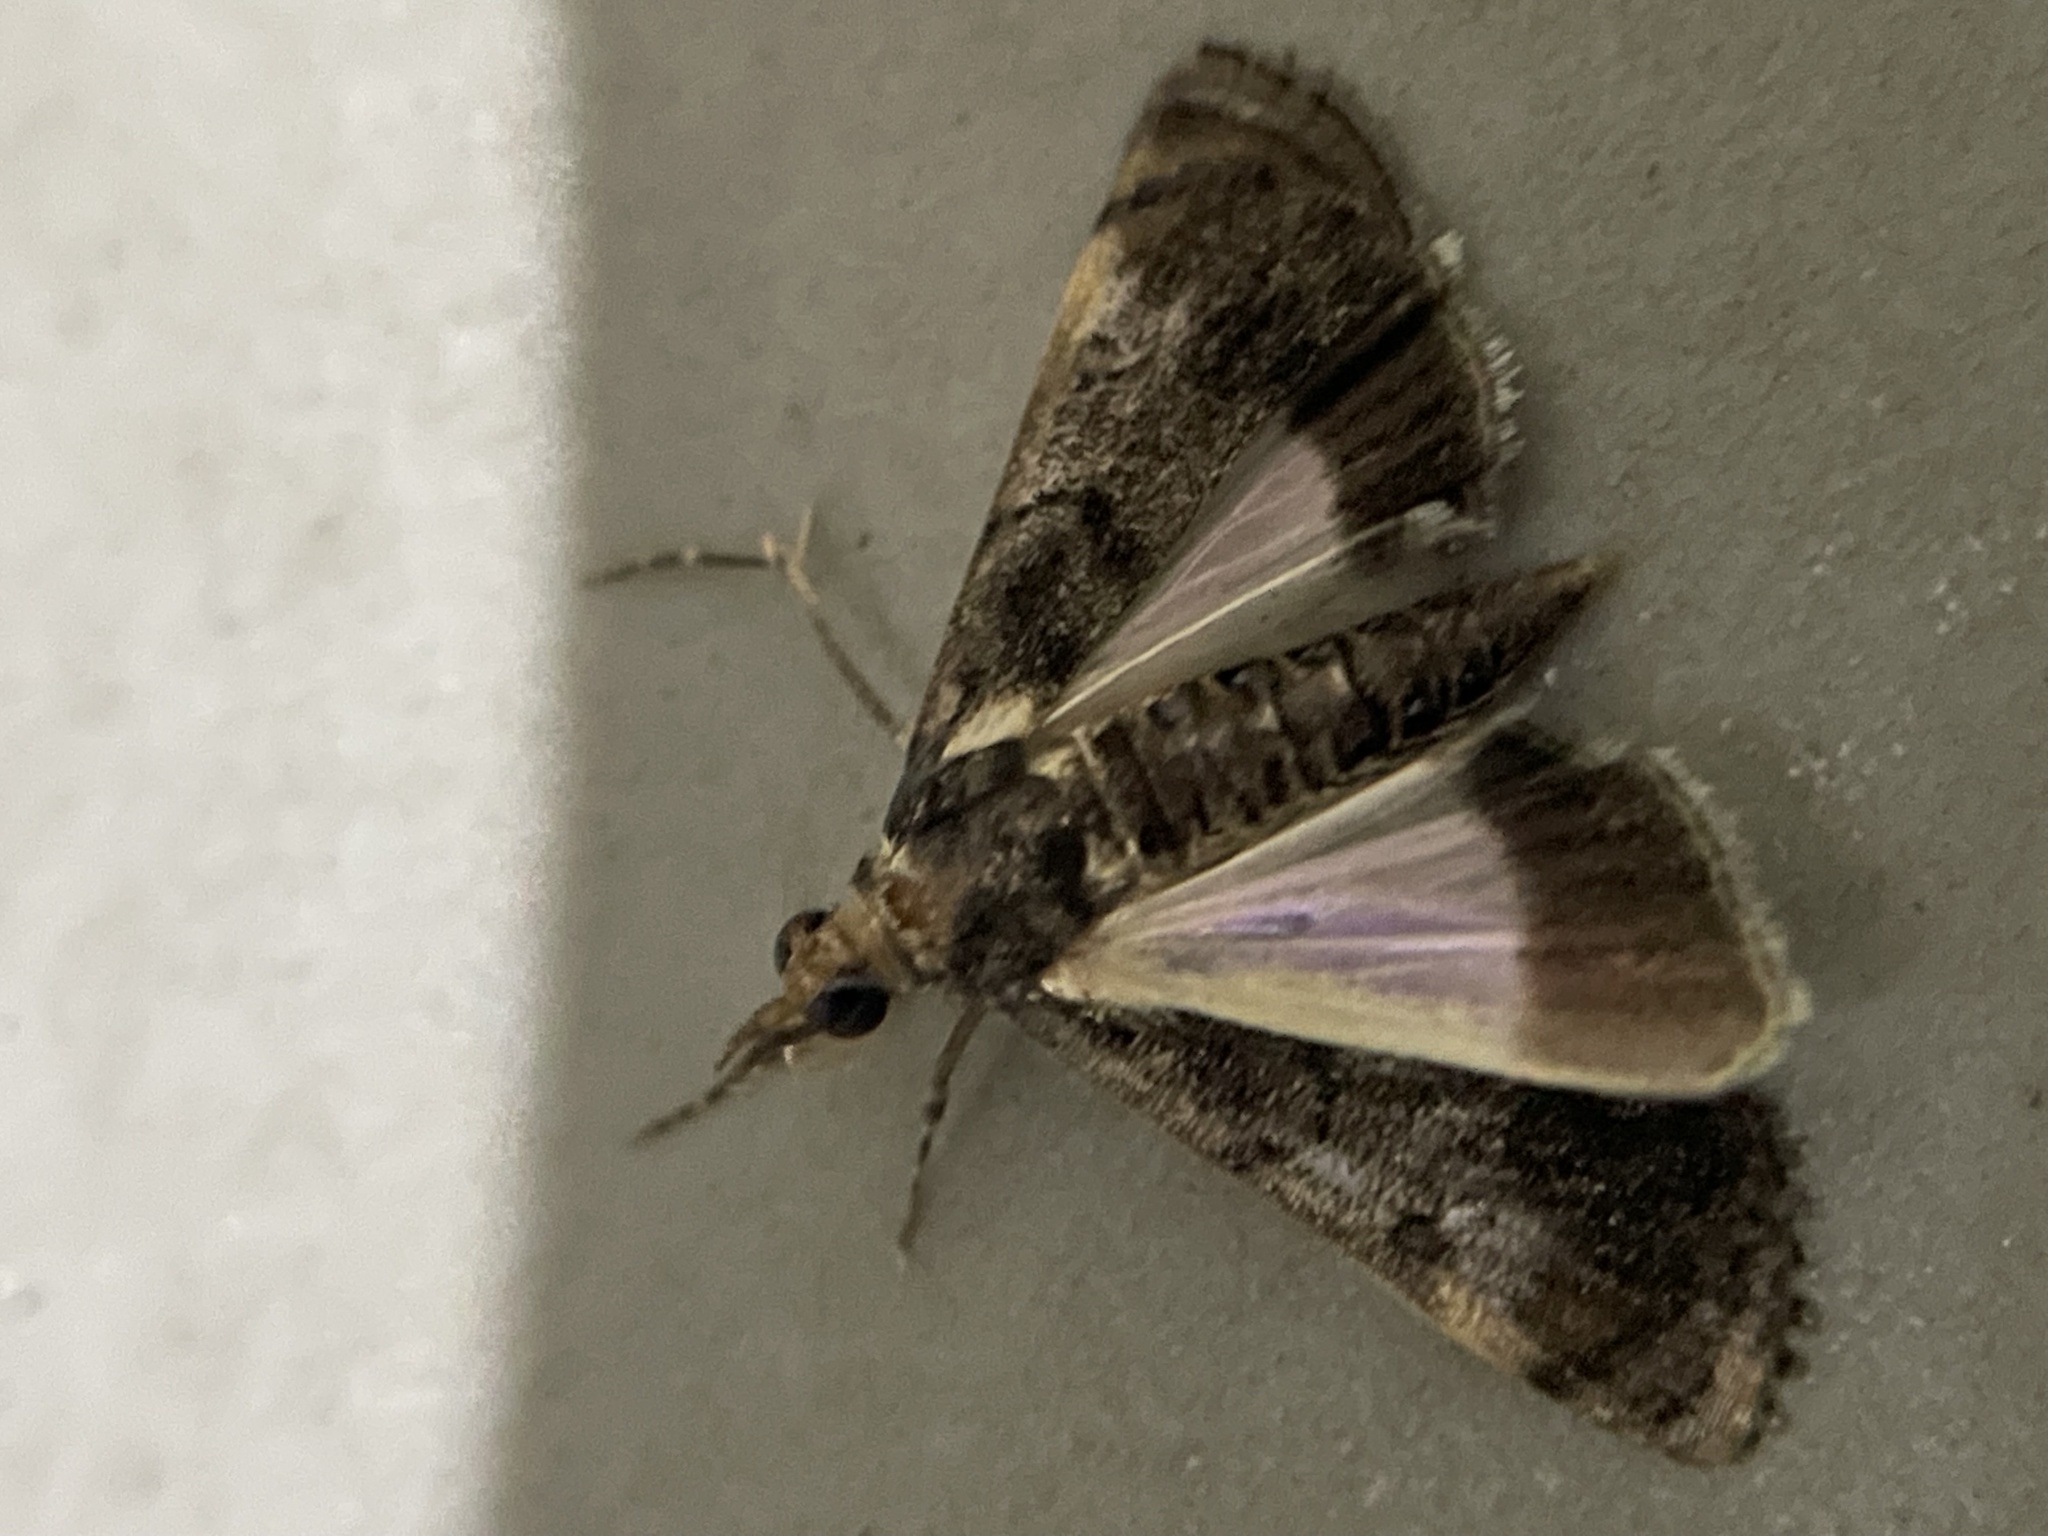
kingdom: Animalia
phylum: Arthropoda
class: Insecta
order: Lepidoptera
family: Crambidae
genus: Noorda
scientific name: Noorda blitealis
